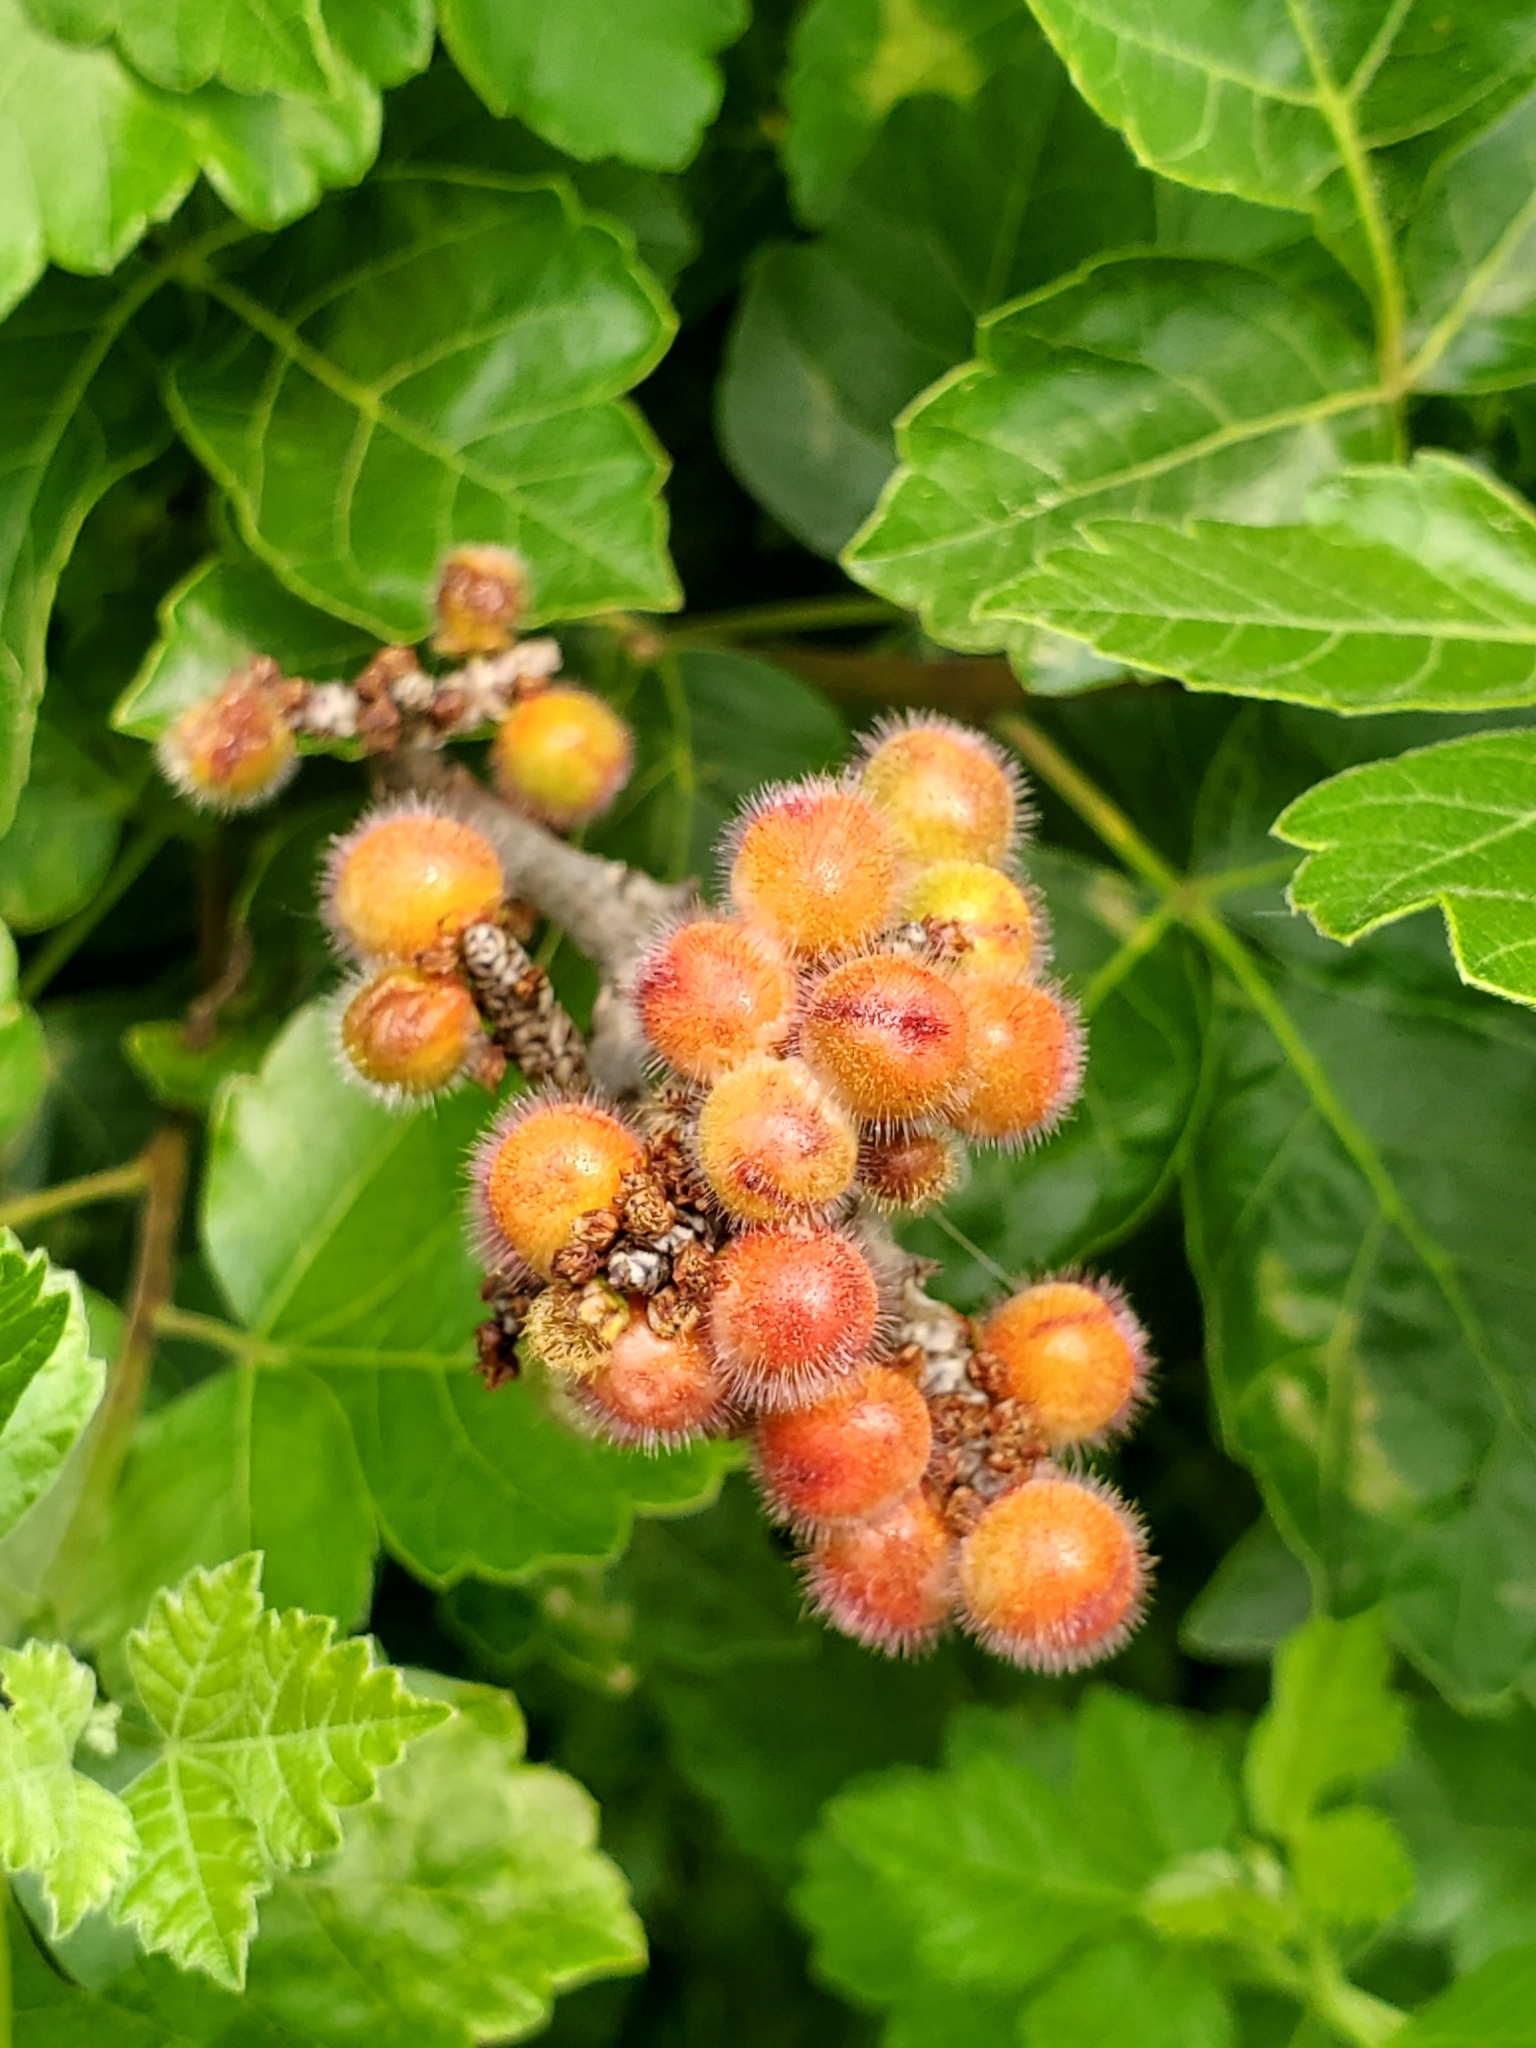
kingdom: Plantae
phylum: Tracheophyta
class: Magnoliopsida
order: Sapindales
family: Anacardiaceae
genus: Rhus
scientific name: Rhus aromatica
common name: Aromatic sumac
